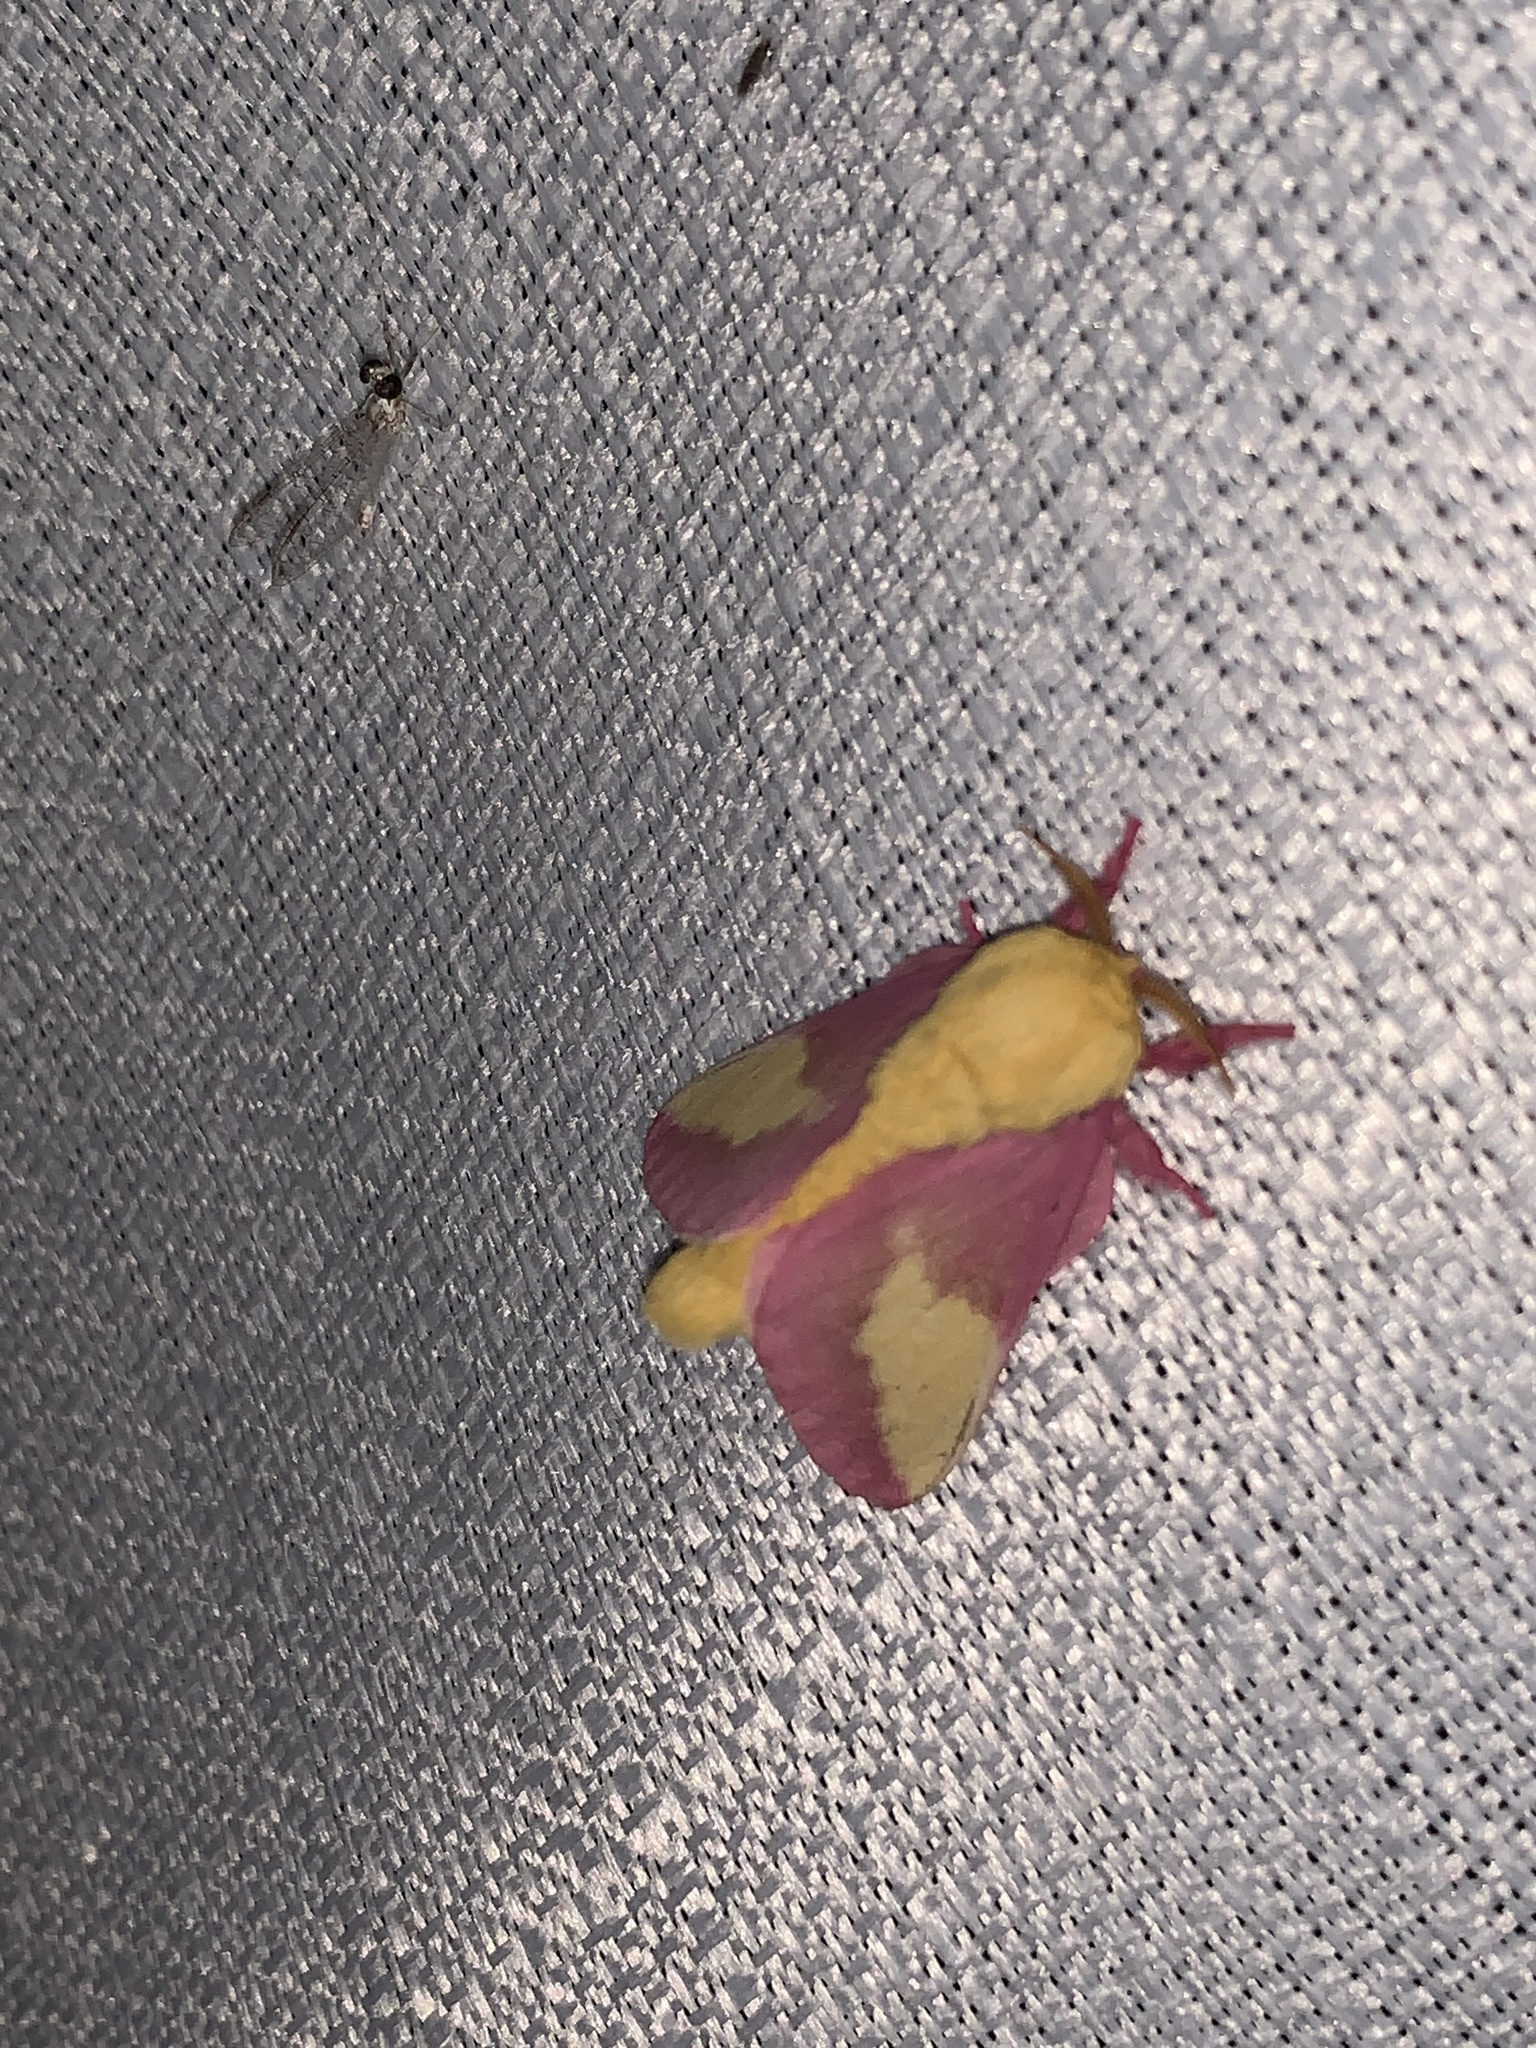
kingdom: Animalia
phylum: Arthropoda
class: Insecta
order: Lepidoptera
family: Saturniidae
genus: Dryocampa
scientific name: Dryocampa rubicunda
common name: Rosy maple moth
